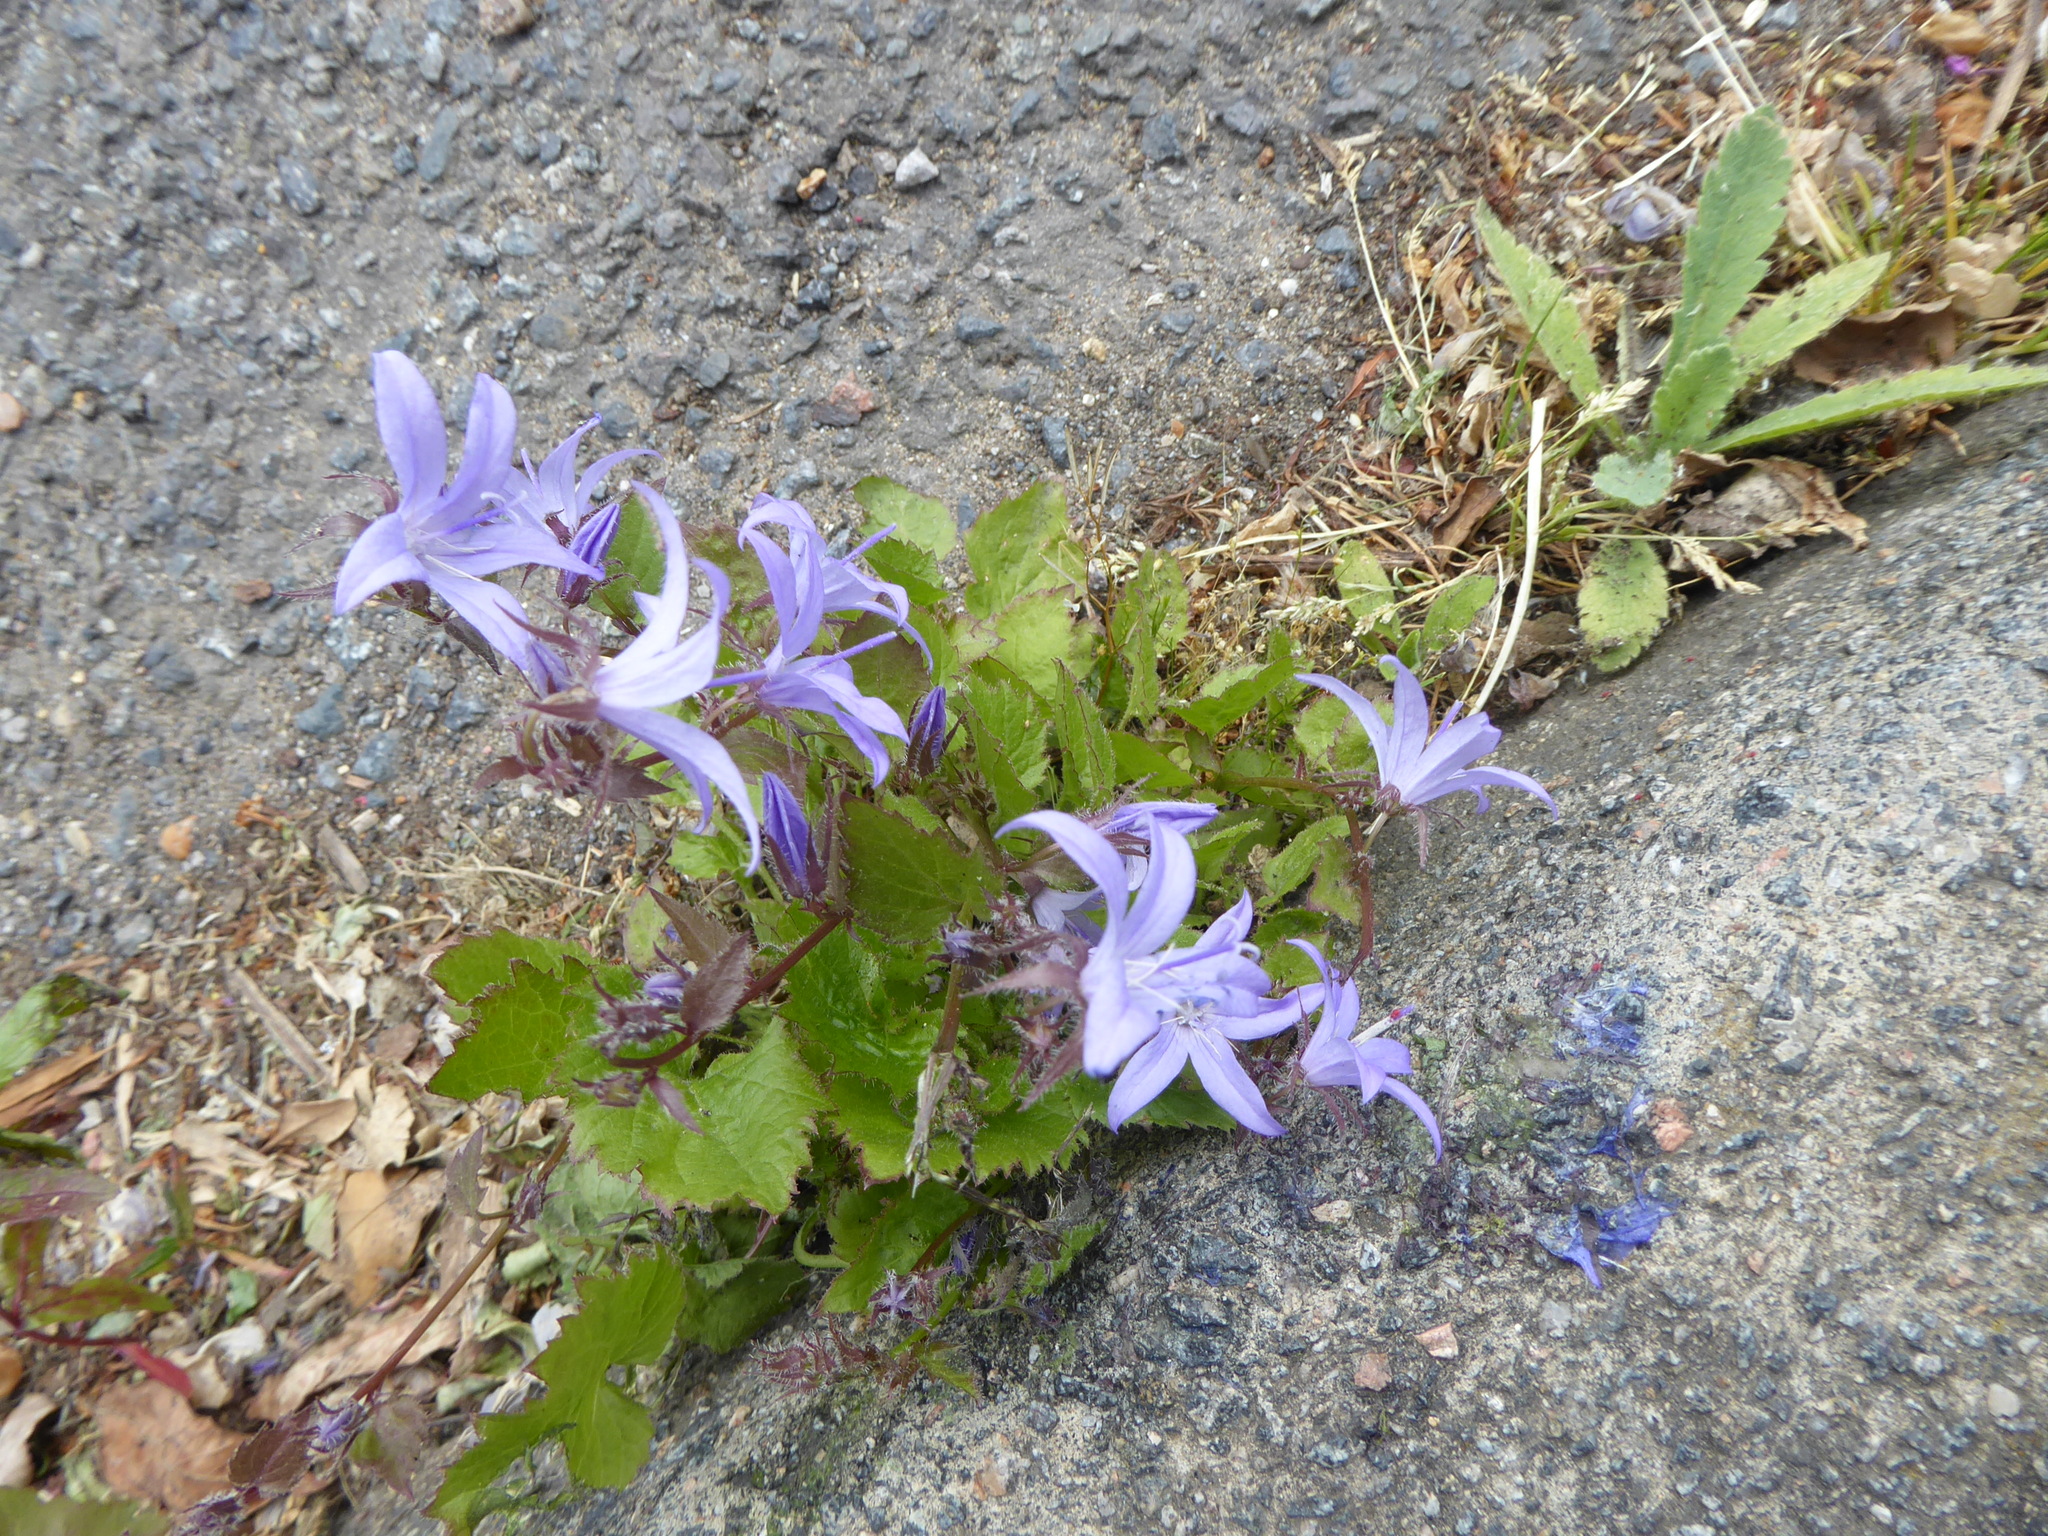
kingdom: Plantae
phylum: Tracheophyta
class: Magnoliopsida
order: Asterales
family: Campanulaceae
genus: Campanula
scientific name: Campanula poscharskyana
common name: Trailing bellflower
